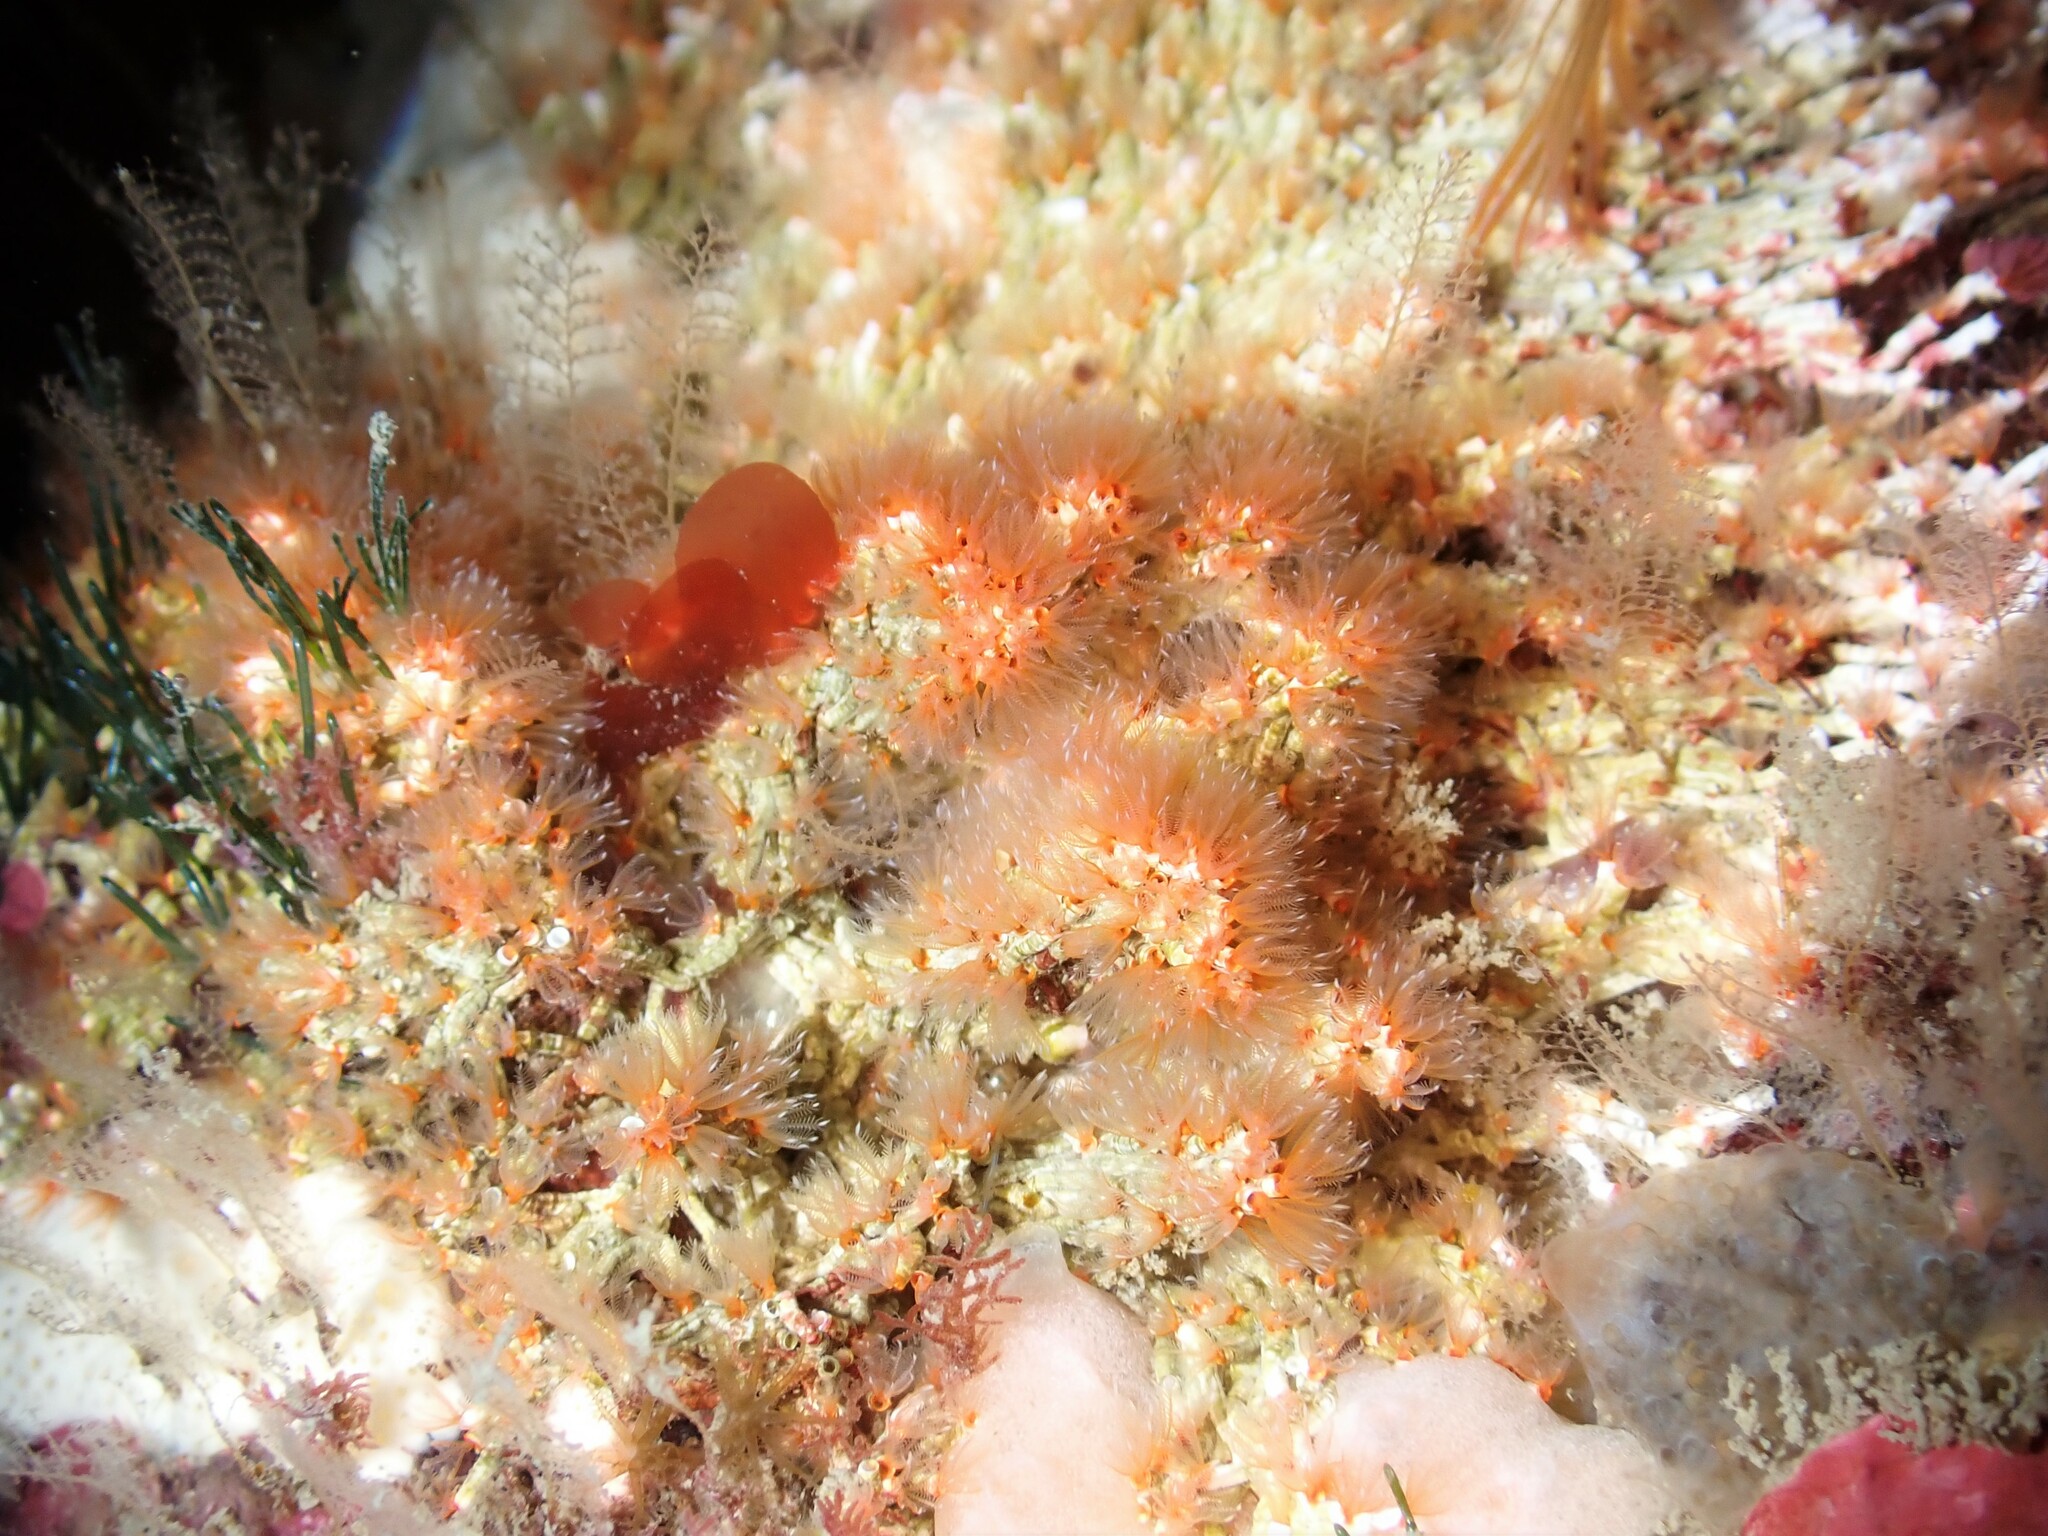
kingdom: Animalia
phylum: Annelida
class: Polychaeta
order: Sabellida
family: Serpulidae
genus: Salmacina
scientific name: Salmacina australis
